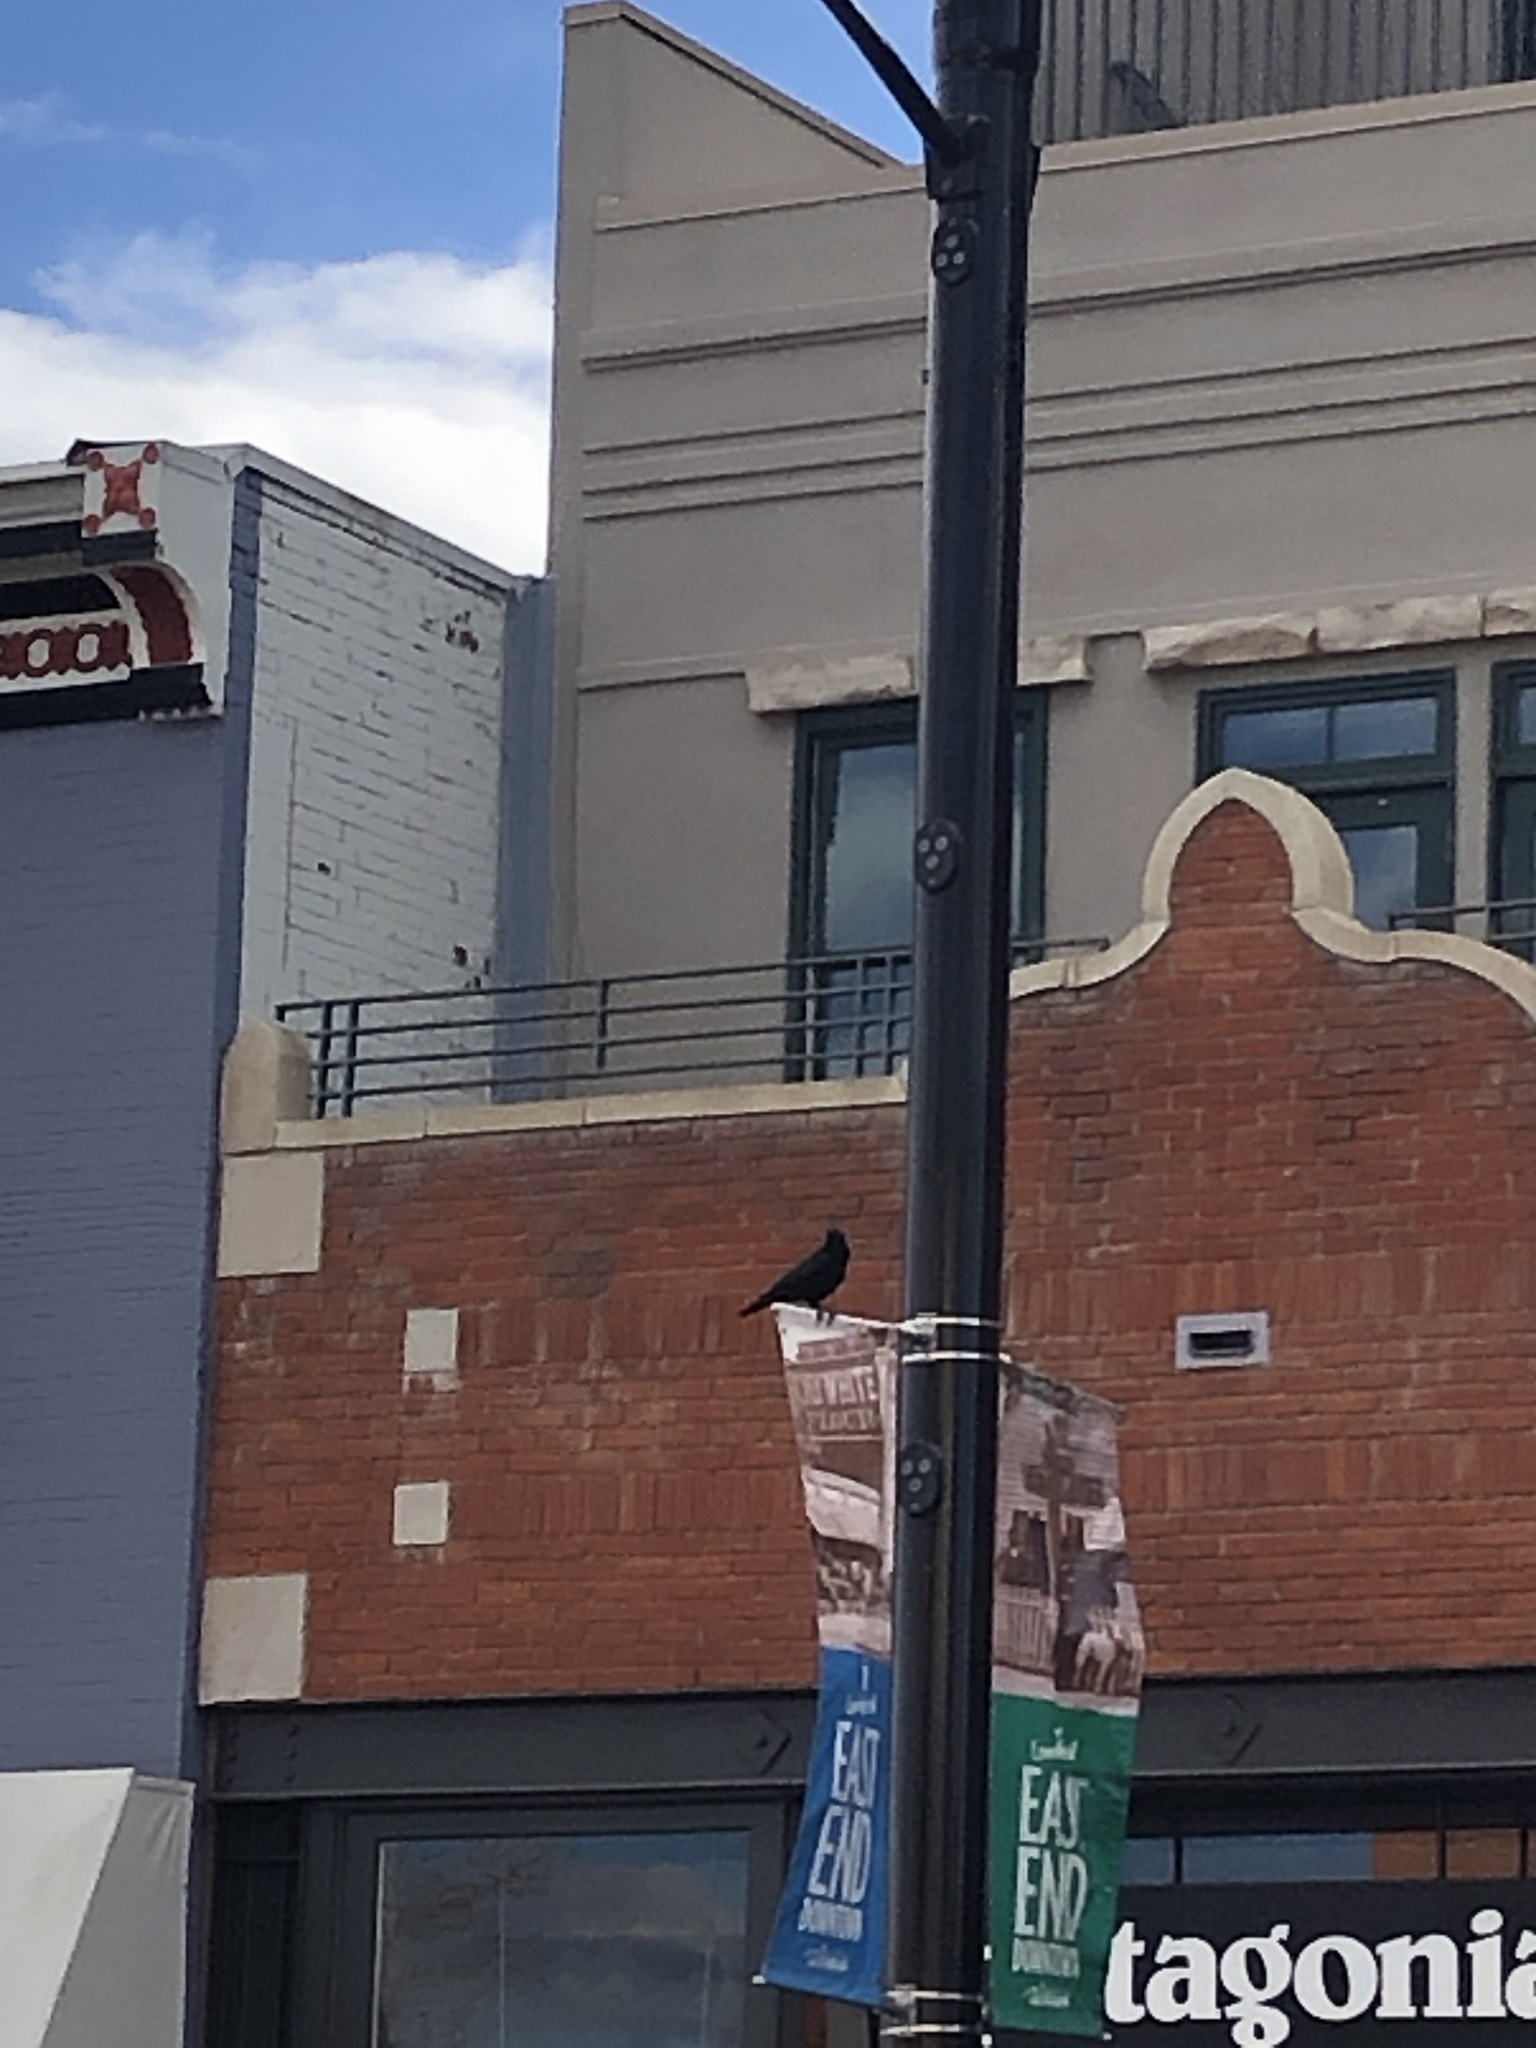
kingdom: Animalia
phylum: Chordata
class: Aves
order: Passeriformes
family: Corvidae
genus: Corvus
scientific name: Corvus brachyrhynchos
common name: American crow
